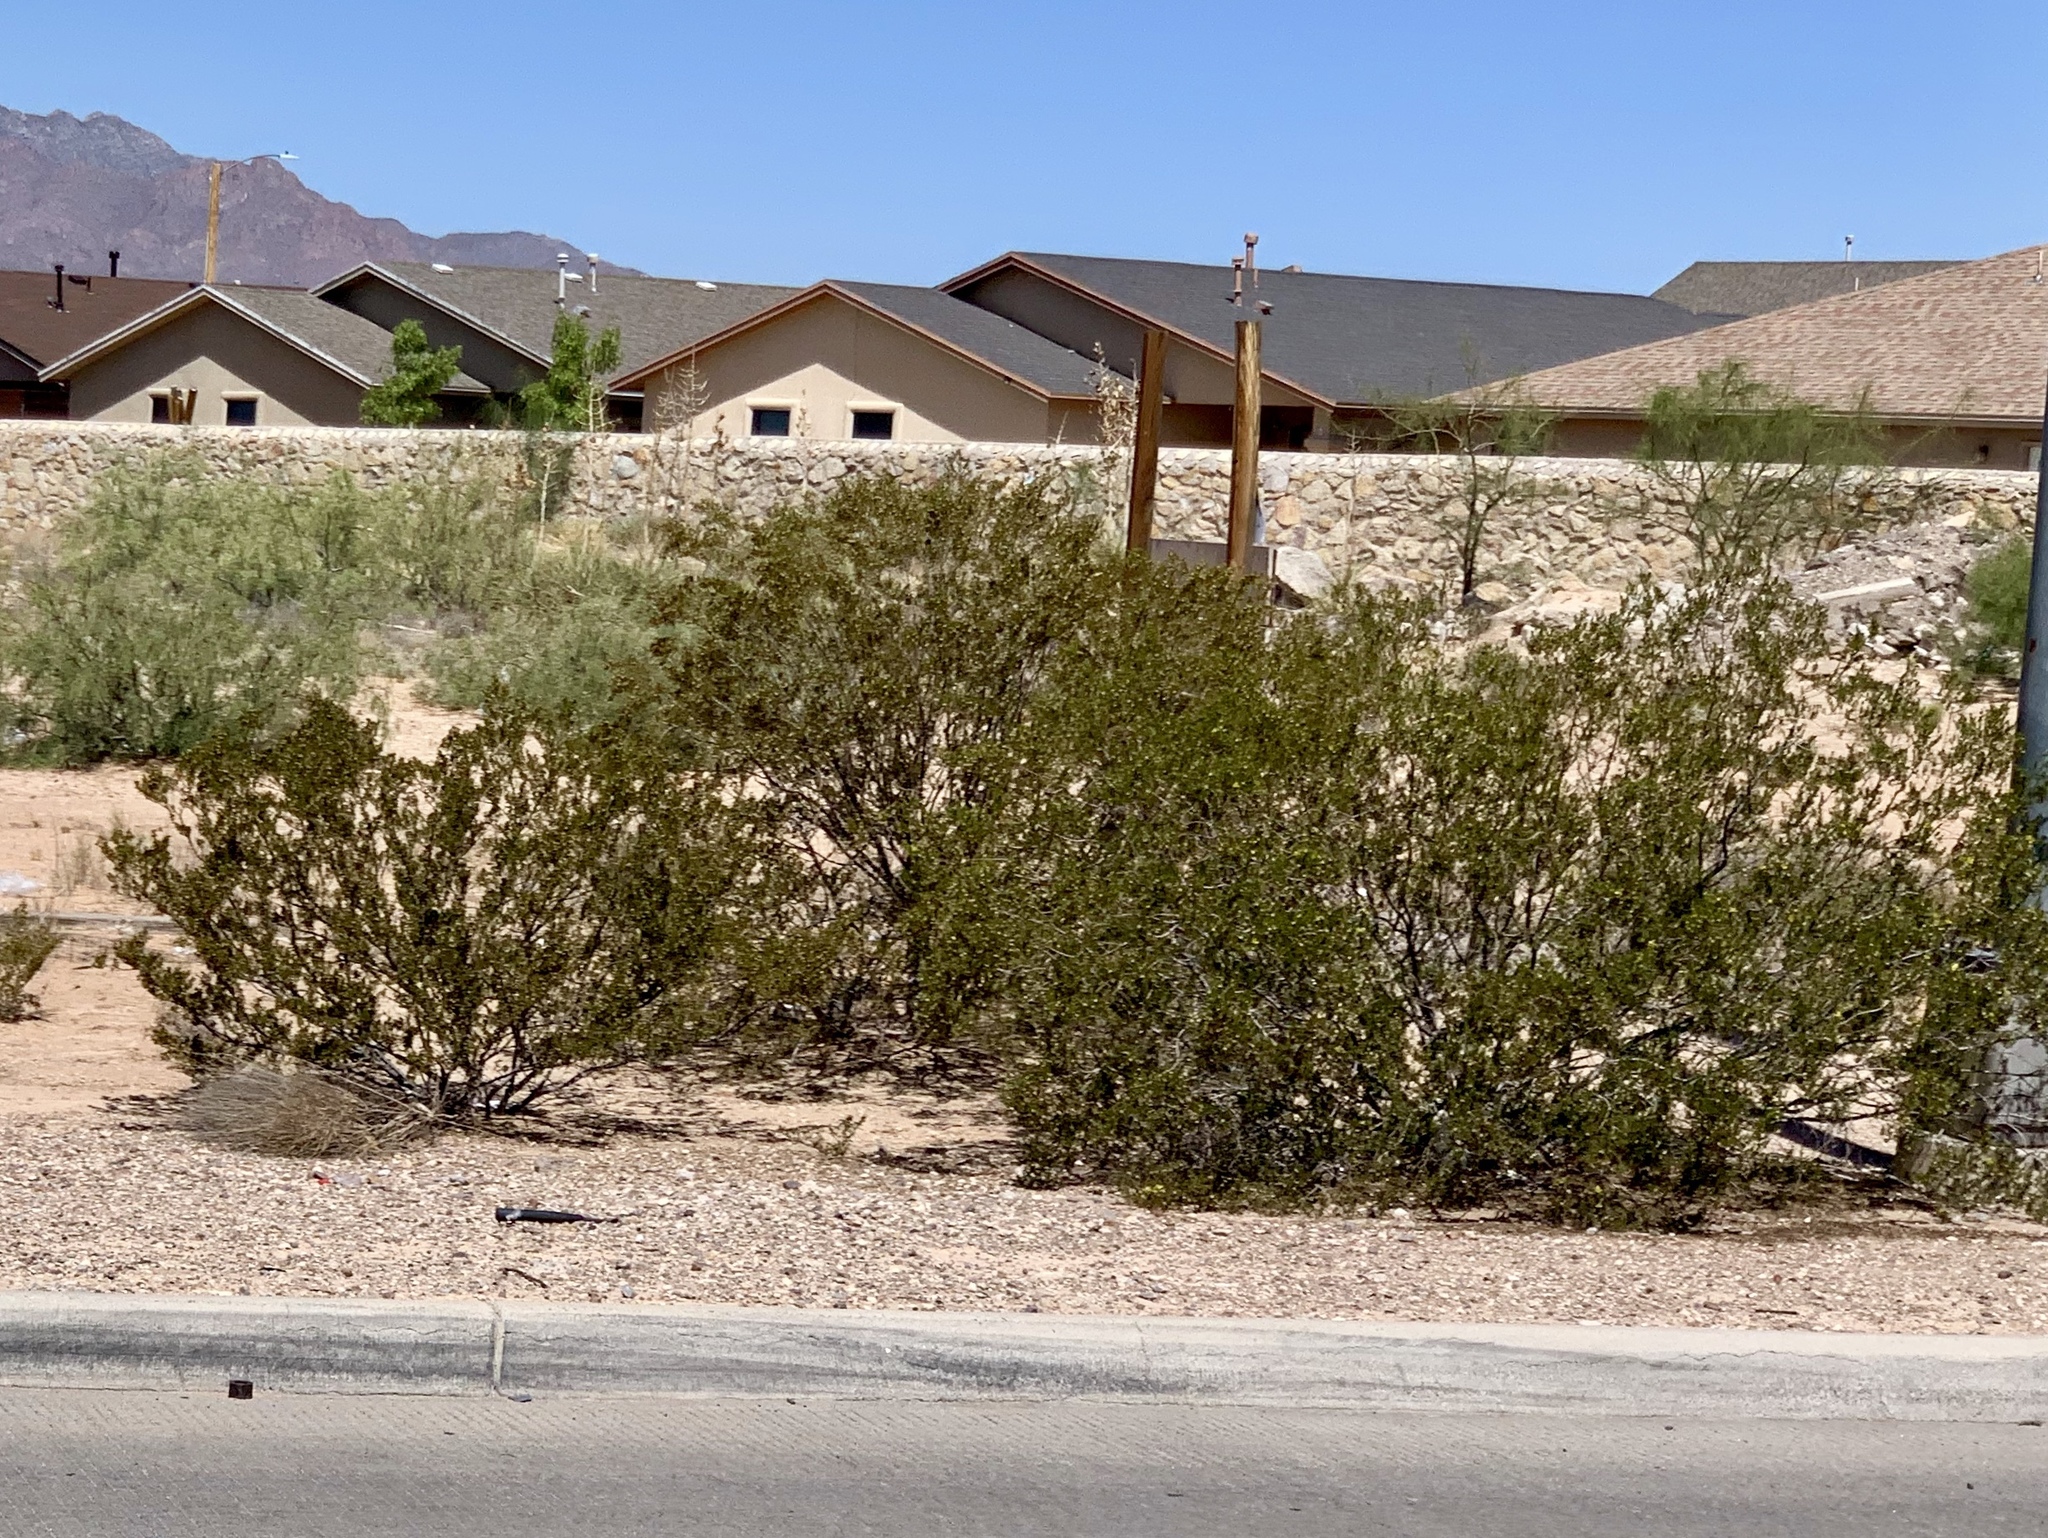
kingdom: Plantae
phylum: Tracheophyta
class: Magnoliopsida
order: Zygophyllales
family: Zygophyllaceae
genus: Larrea
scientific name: Larrea tridentata
